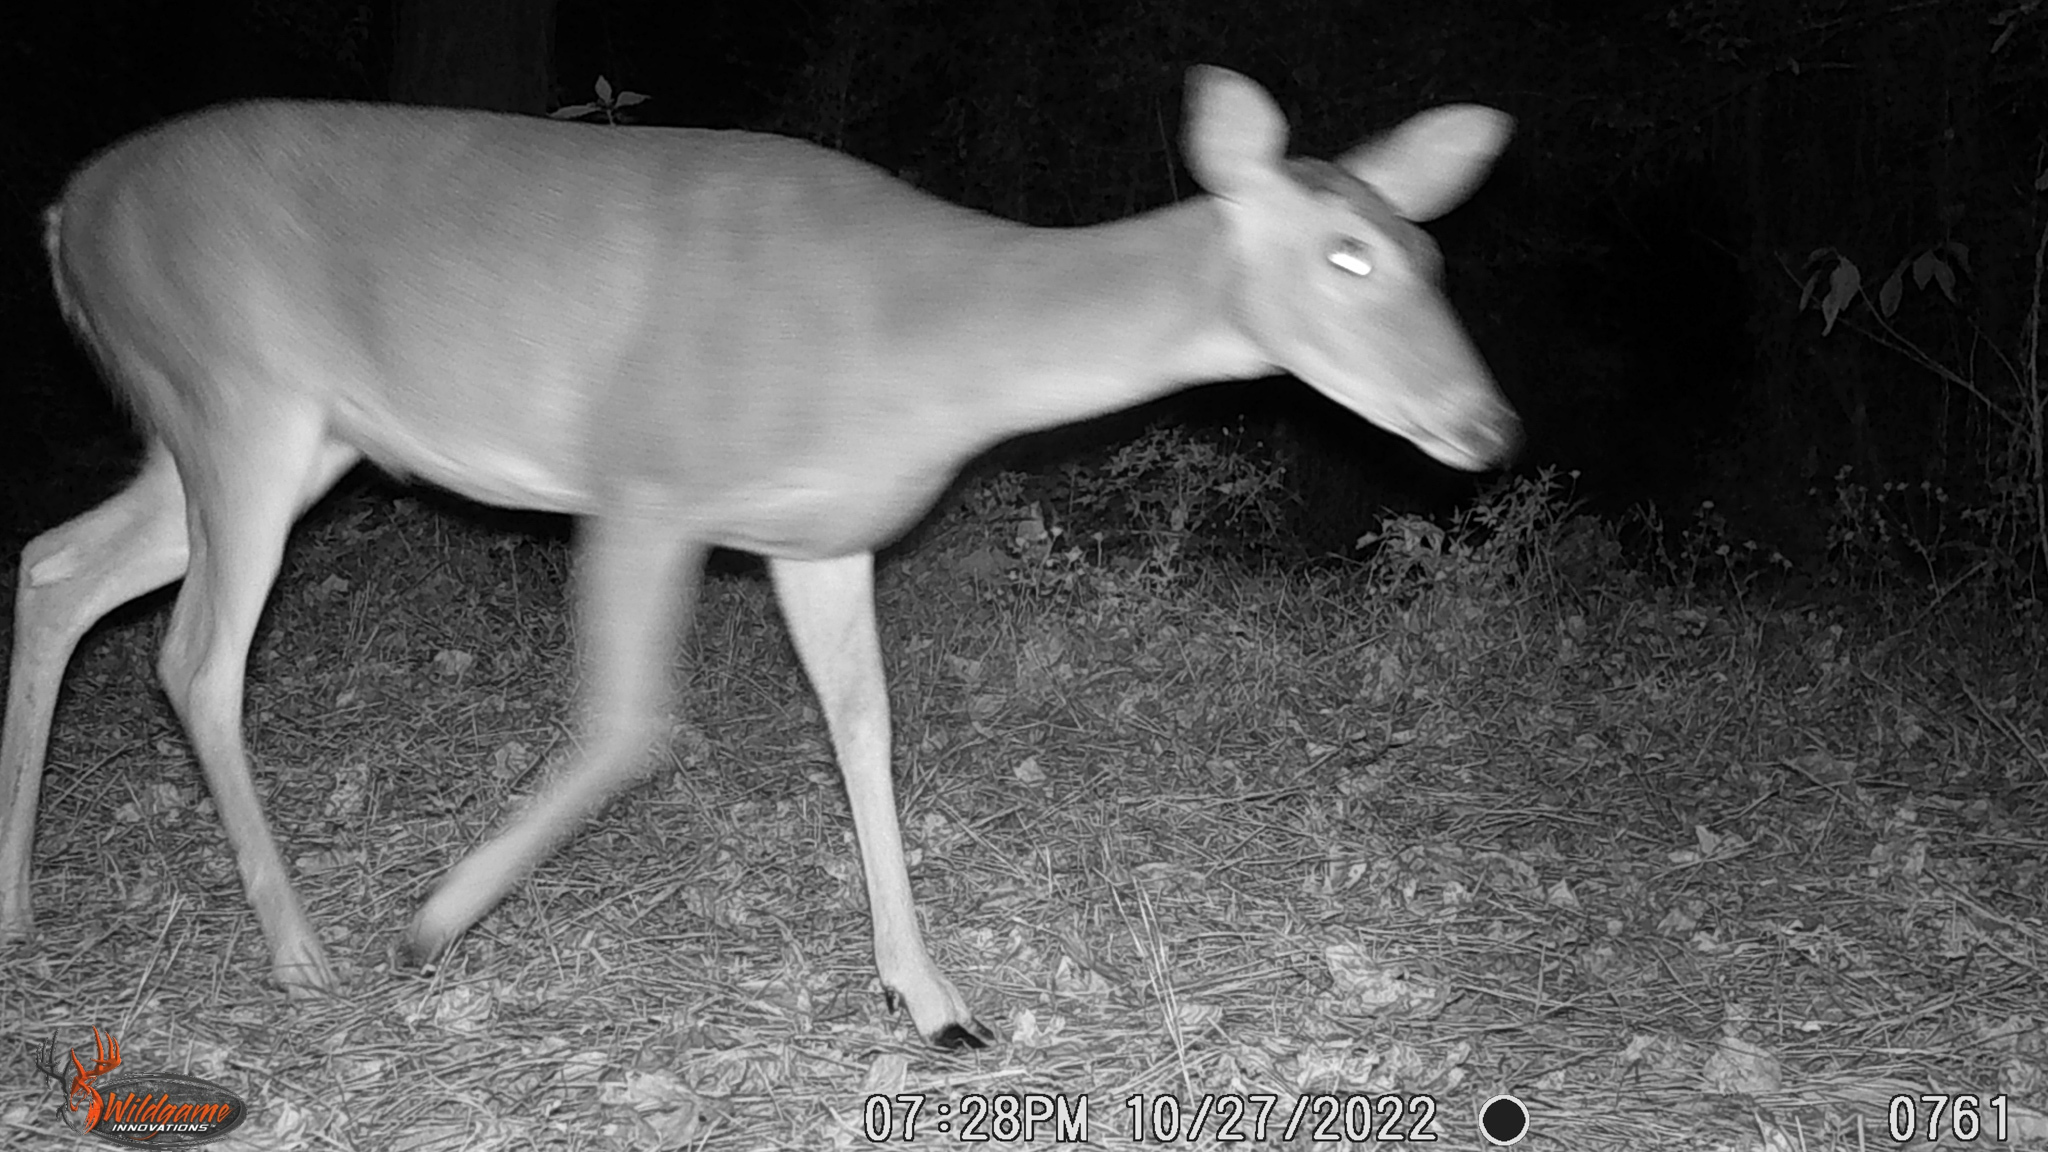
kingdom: Animalia
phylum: Chordata
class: Mammalia
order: Artiodactyla
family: Cervidae
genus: Odocoileus
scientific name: Odocoileus virginianus
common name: White-tailed deer
